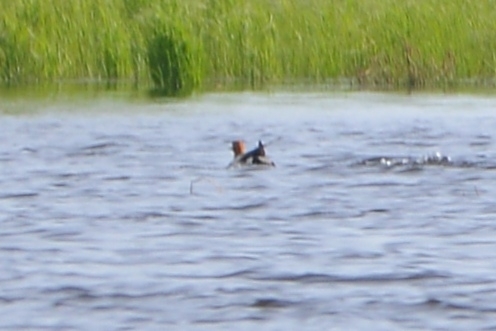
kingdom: Animalia
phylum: Chordata
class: Aves
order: Anseriformes
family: Anatidae
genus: Mareca
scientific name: Mareca penelope
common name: Eurasian wigeon
